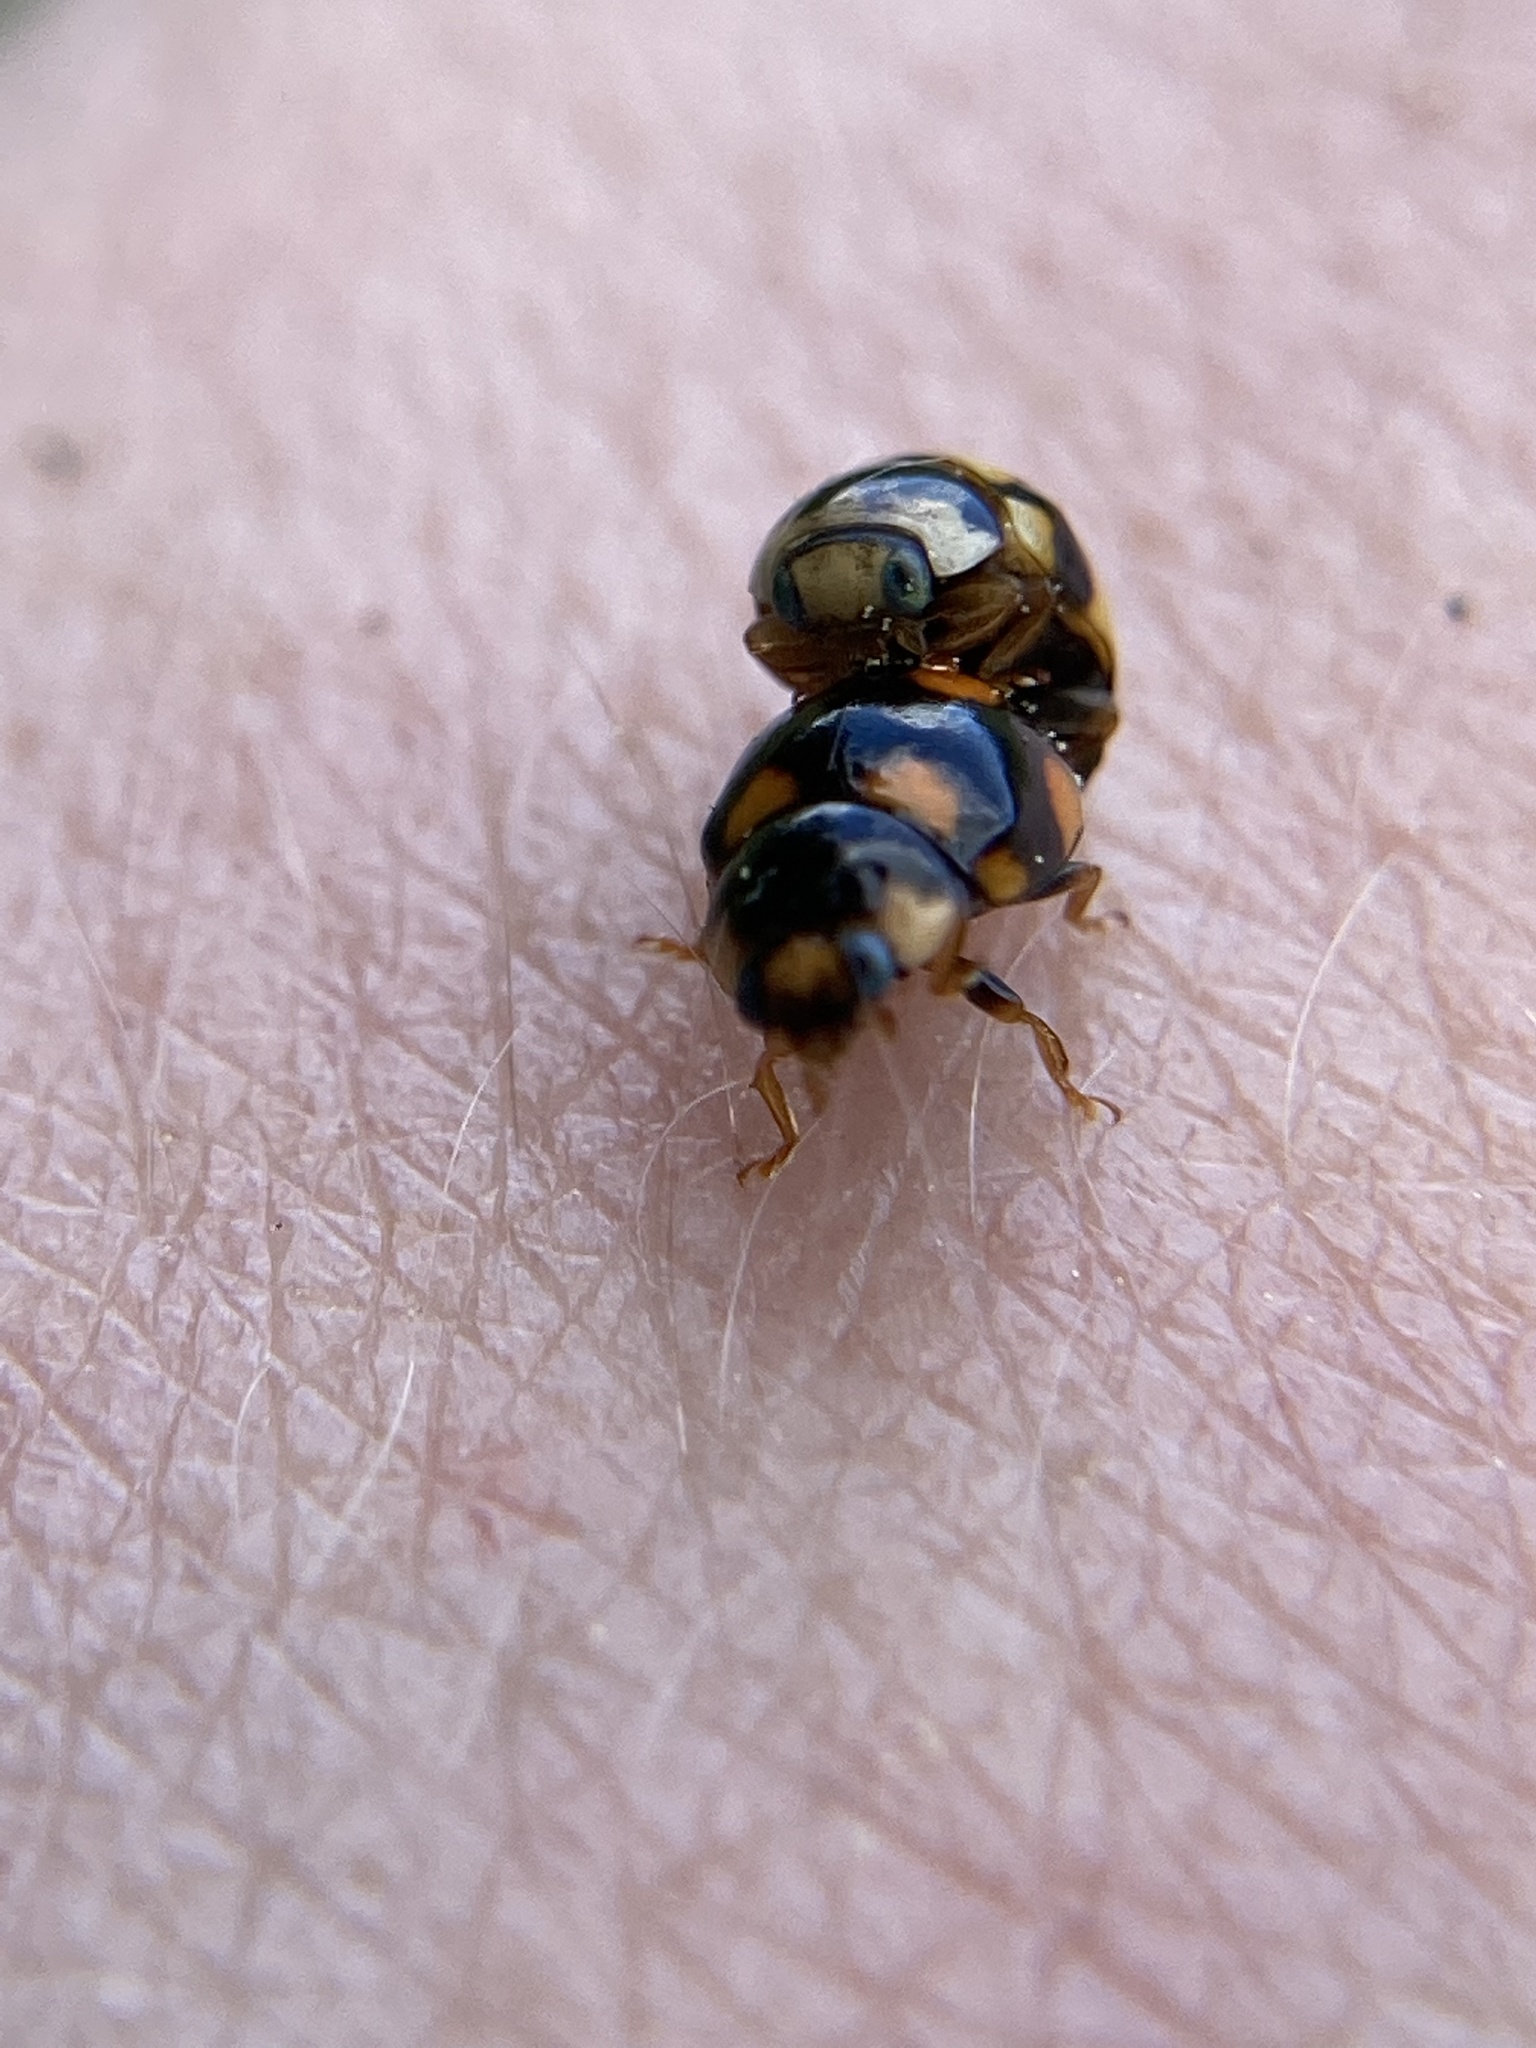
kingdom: Animalia
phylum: Arthropoda
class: Insecta
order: Coleoptera
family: Coccinellidae
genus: Brachiacantha
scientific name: Brachiacantha ursina
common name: Ursine spurleg lady beetle
